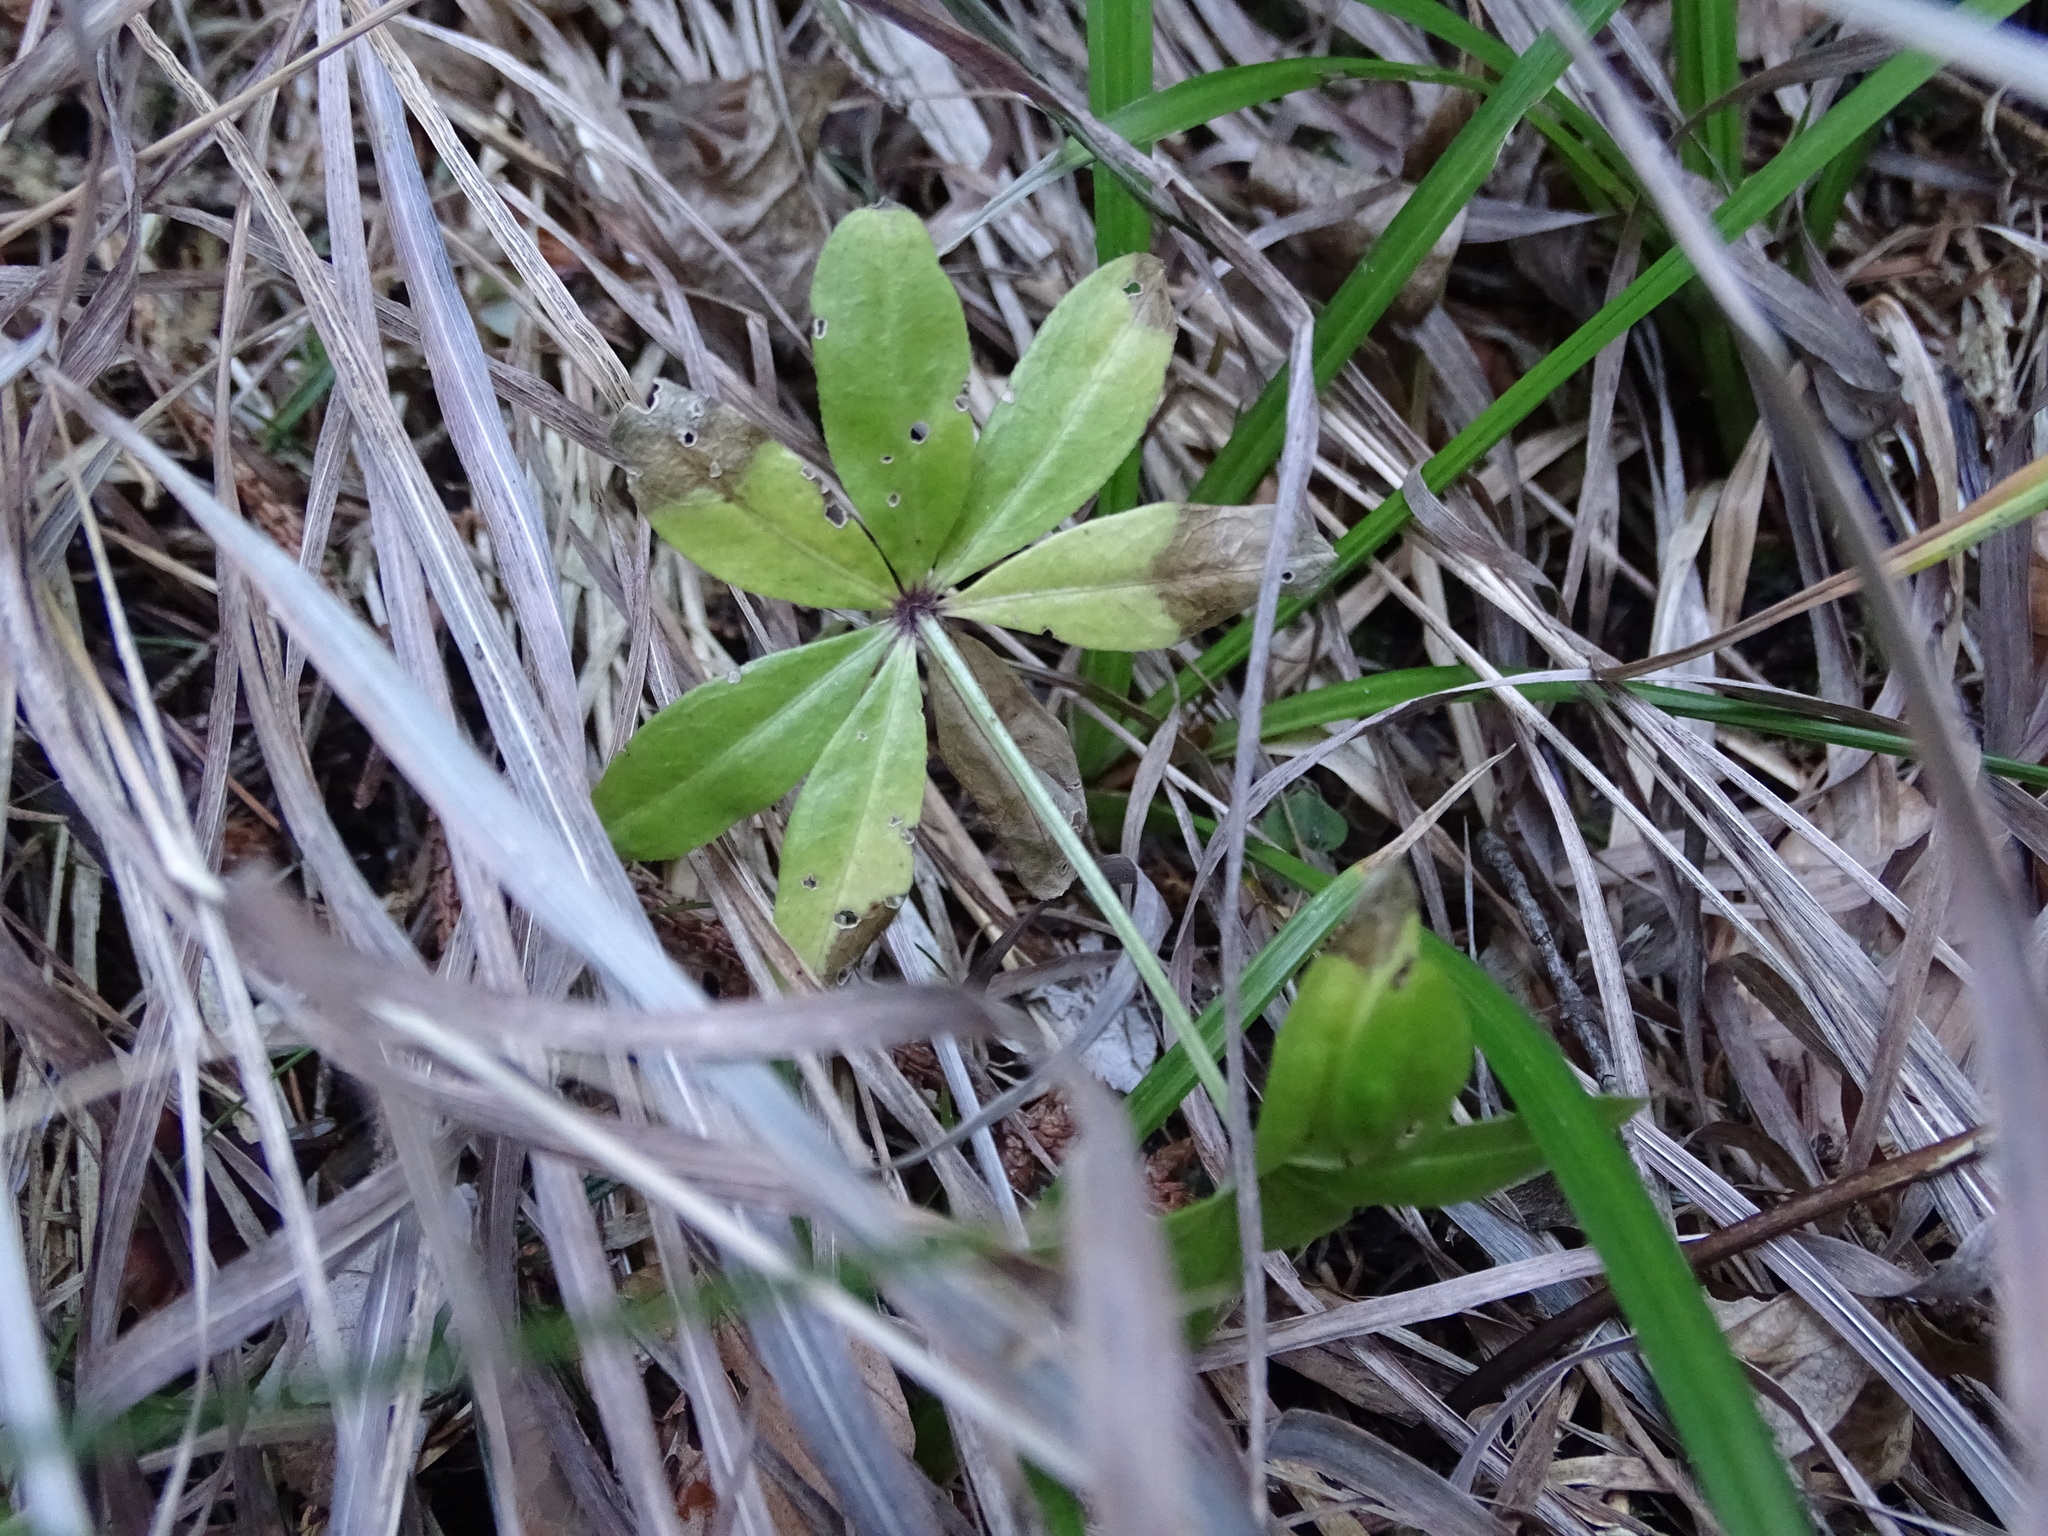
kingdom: Plantae
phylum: Tracheophyta
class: Magnoliopsida
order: Gentianales
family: Rubiaceae
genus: Galium
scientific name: Galium odoratum
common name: Sweet woodruff
